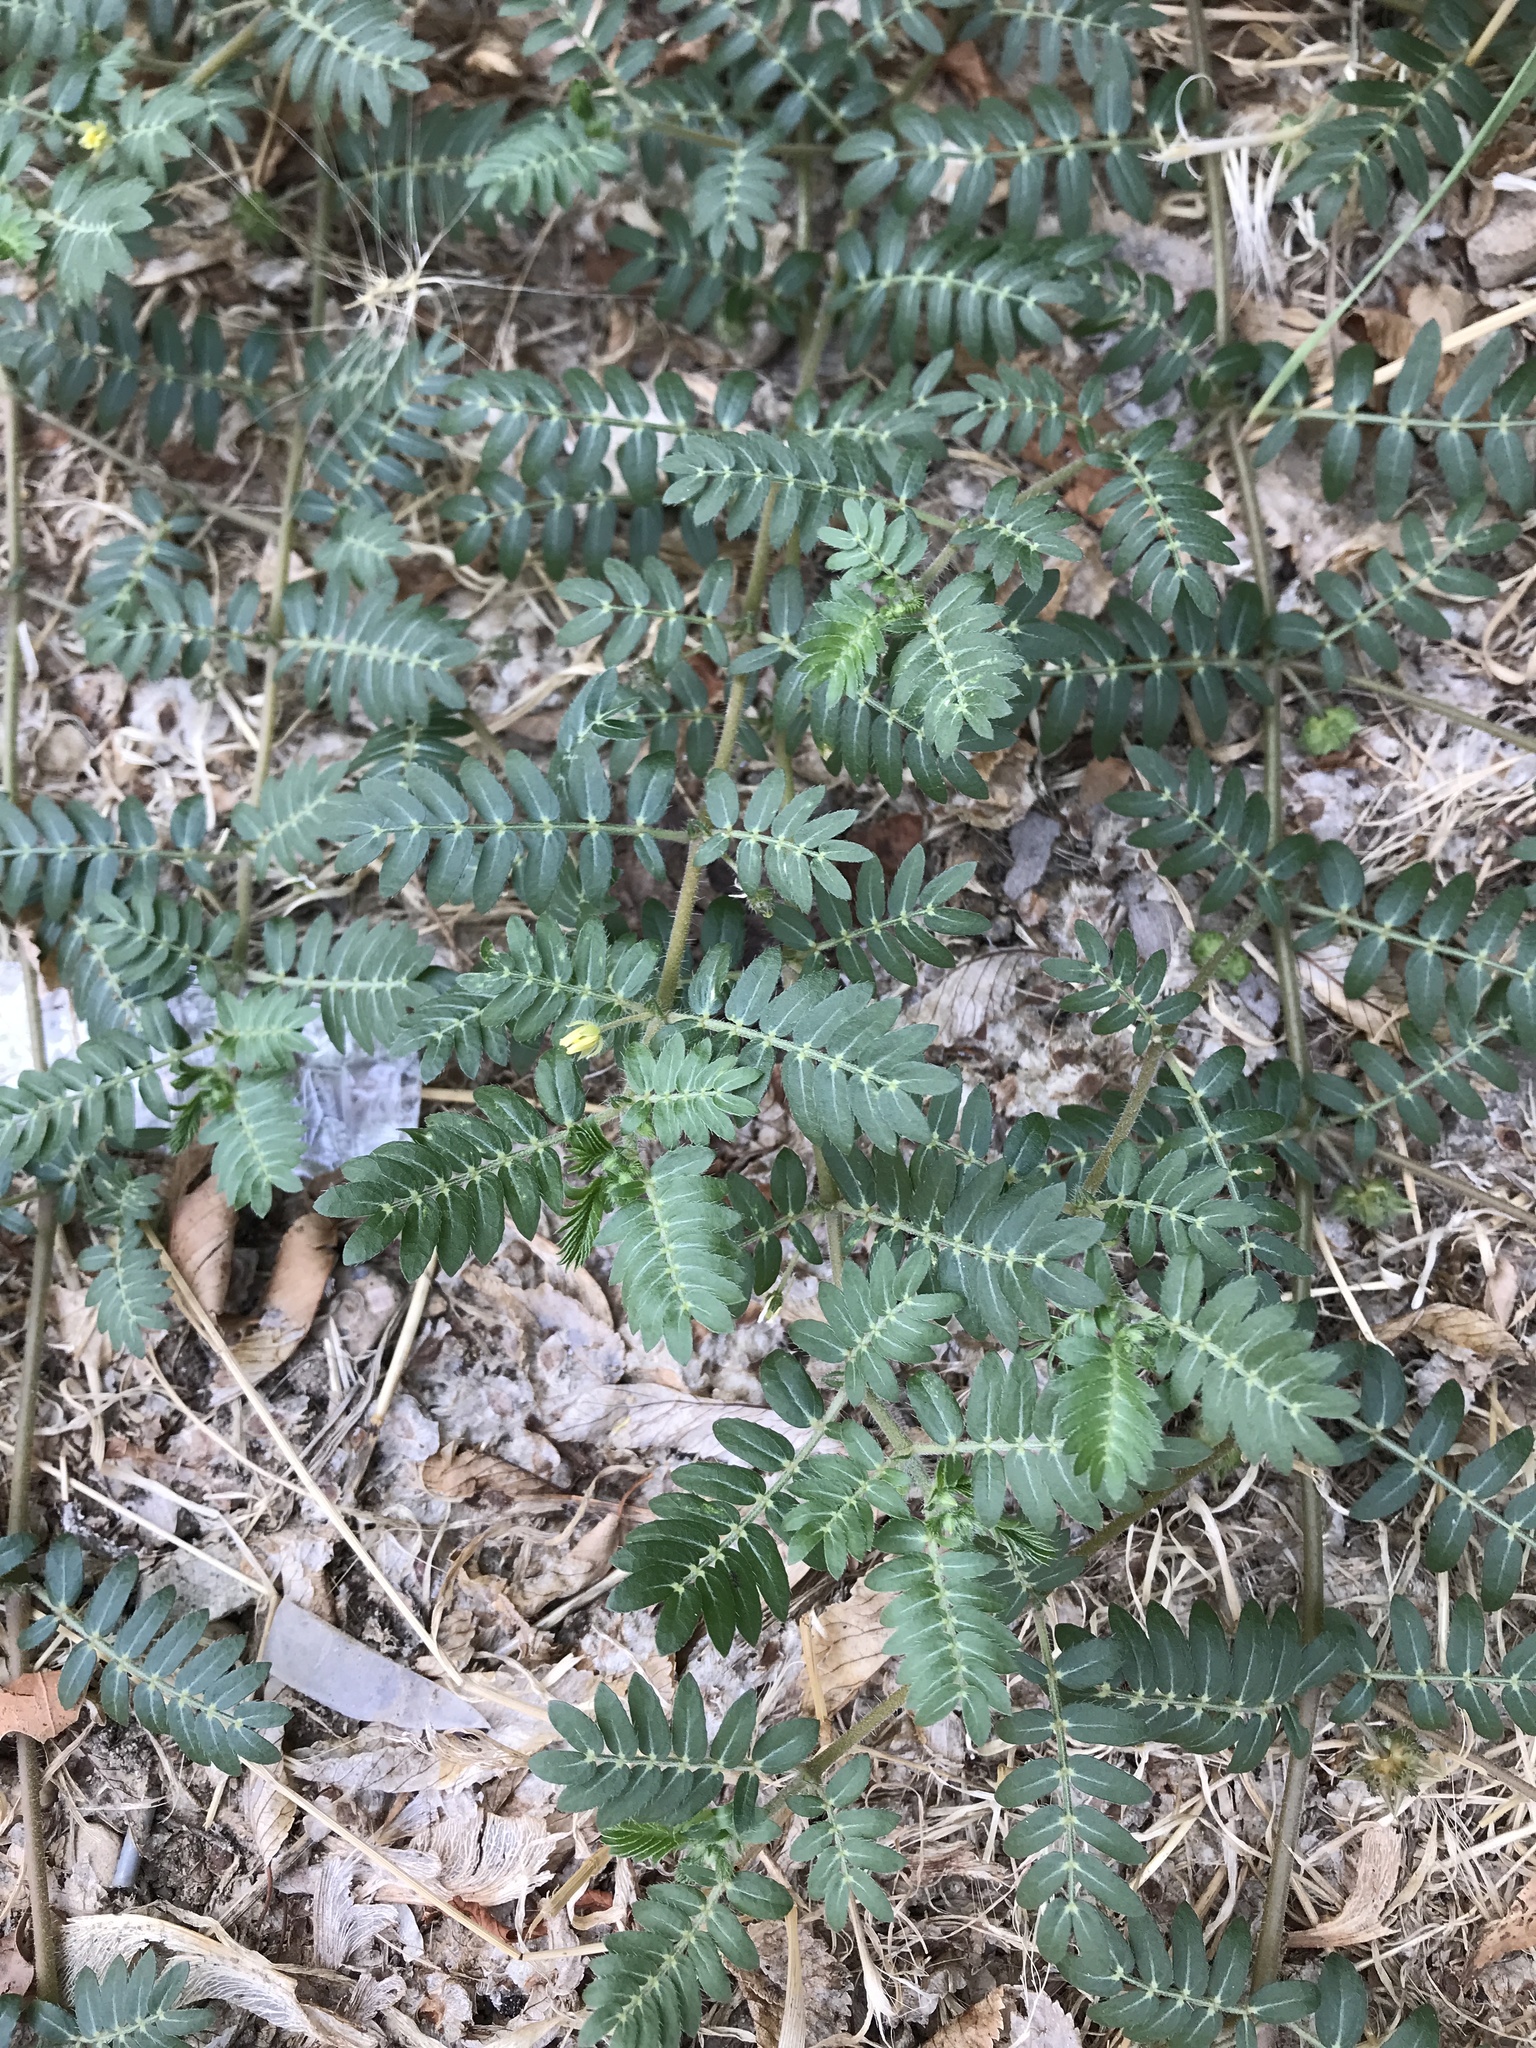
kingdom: Plantae
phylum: Tracheophyta
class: Magnoliopsida
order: Zygophyllales
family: Zygophyllaceae
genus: Tribulus
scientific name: Tribulus terrestris
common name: Puncturevine
